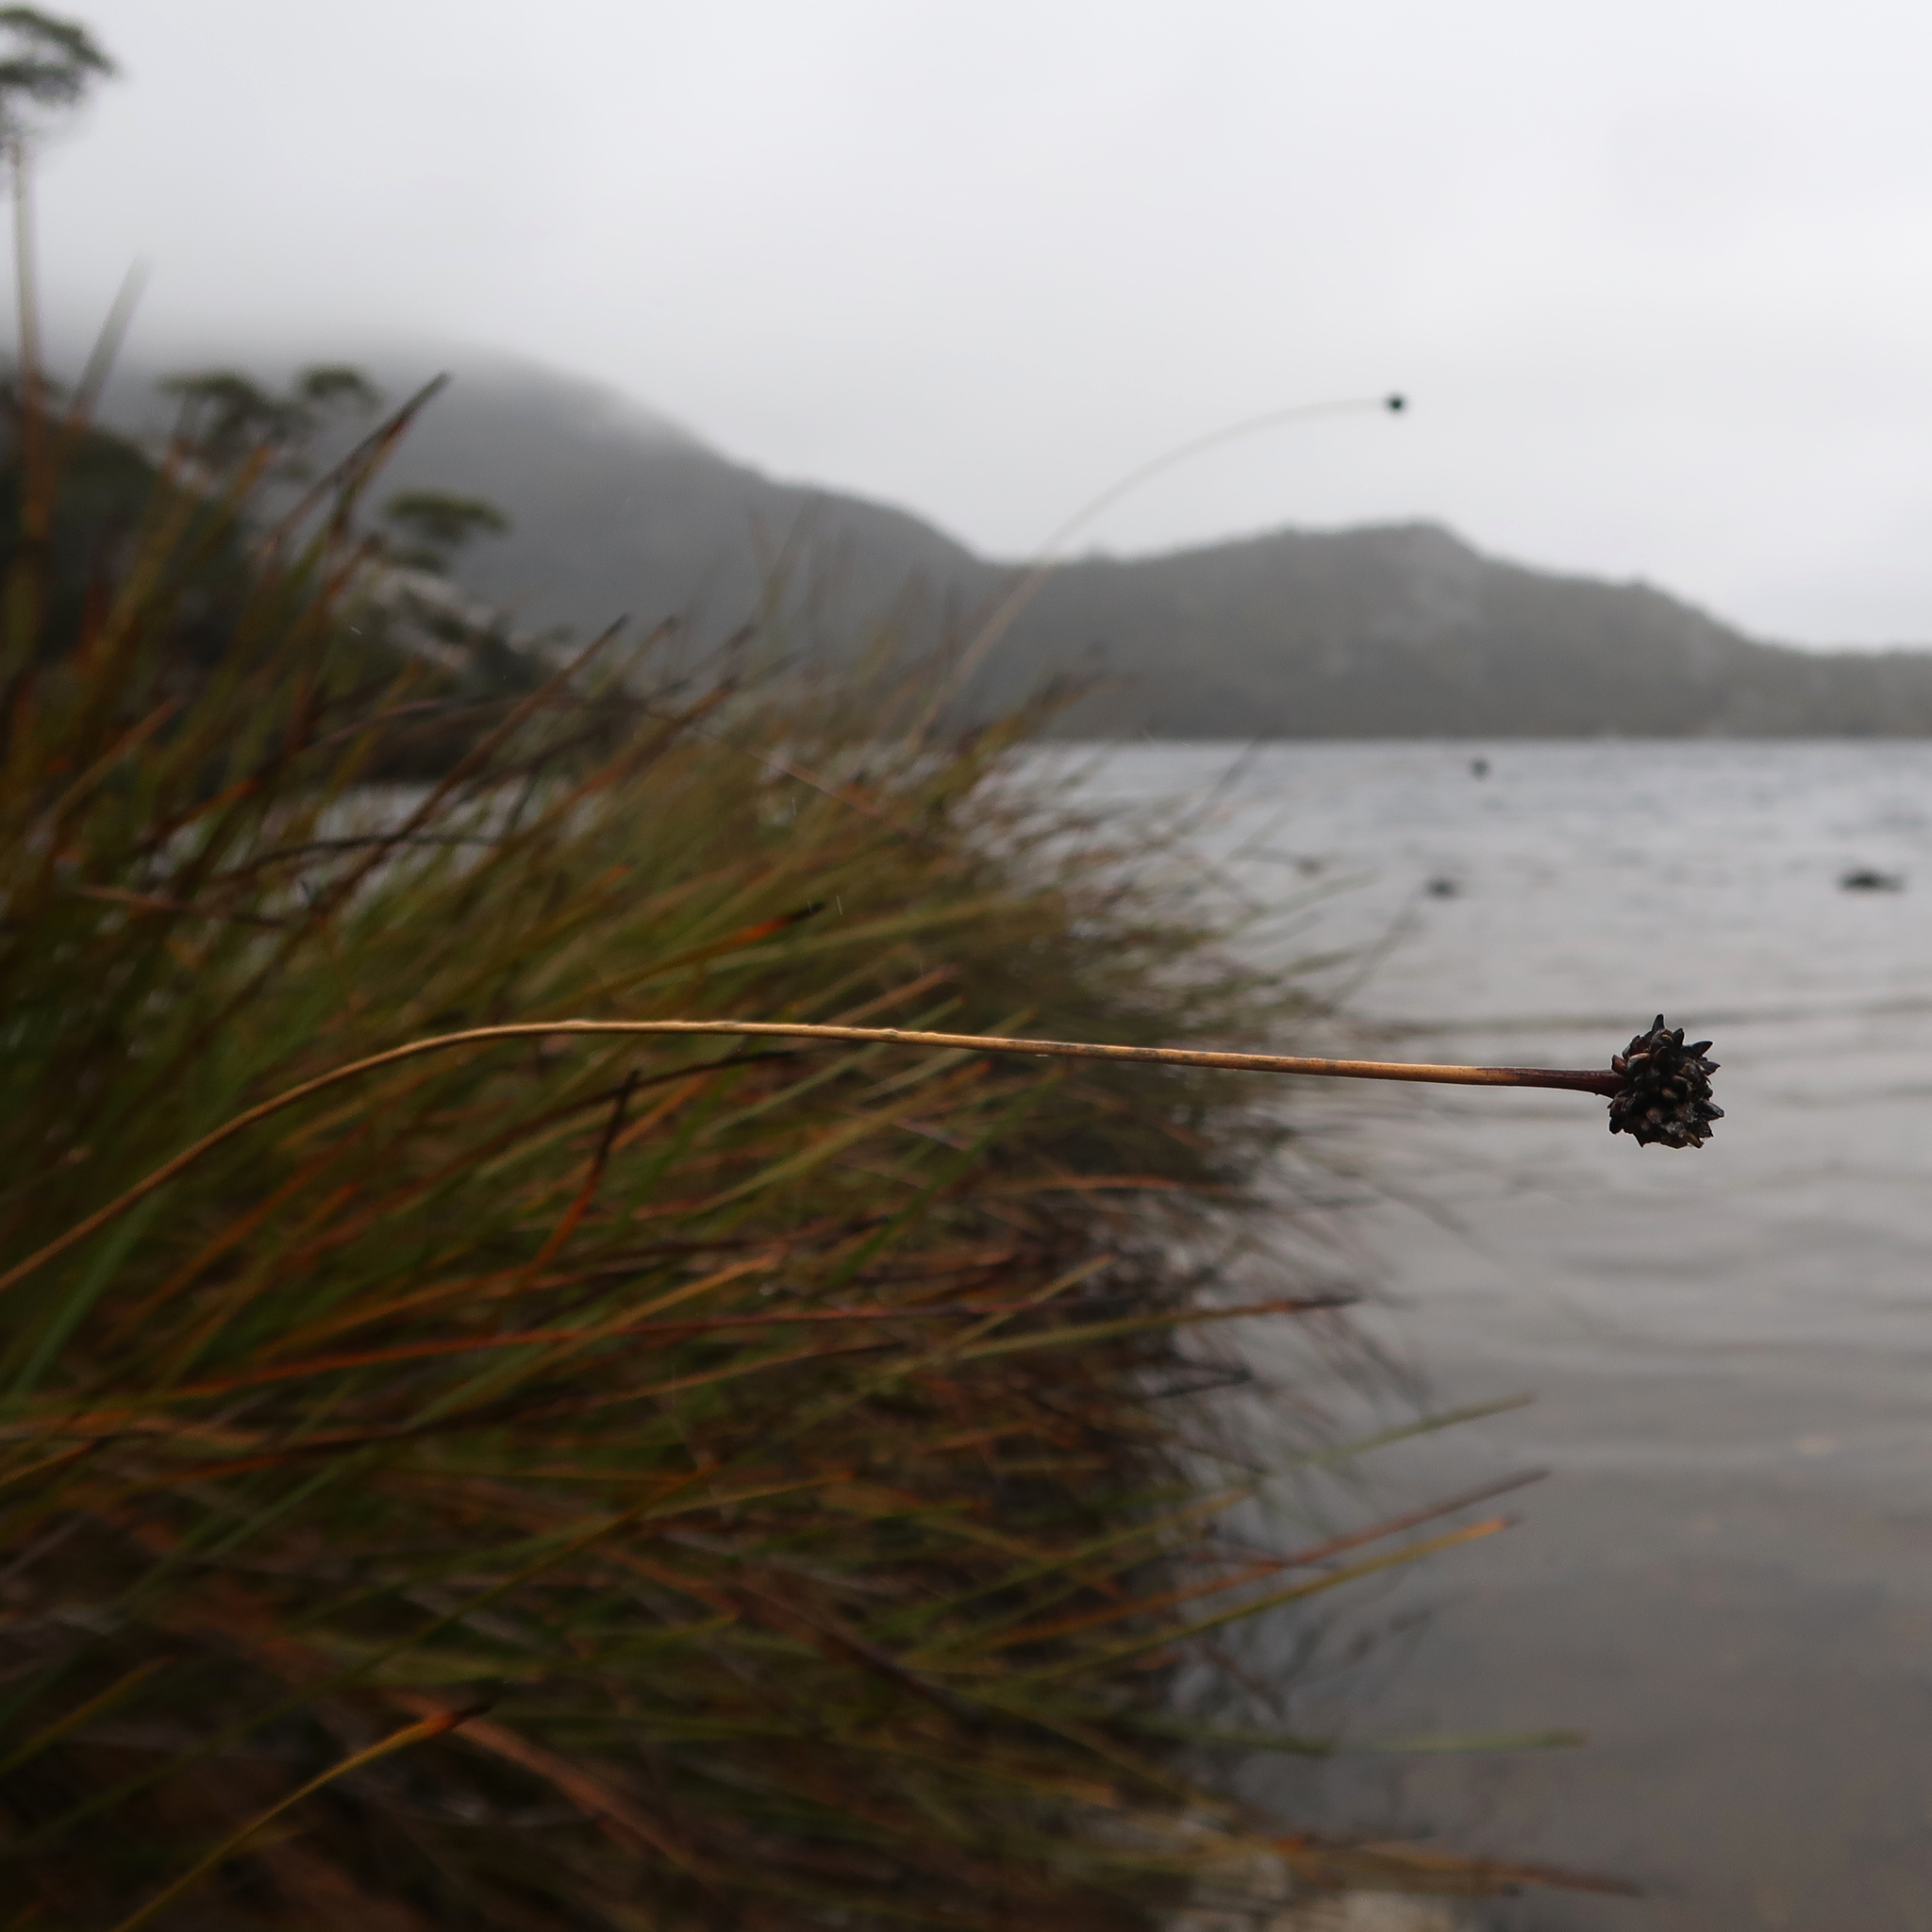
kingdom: Plantae
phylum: Tracheophyta
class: Liliopsida
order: Poales
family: Cyperaceae
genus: Gymnoschoenus
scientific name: Gymnoschoenus sphaerocephalus
